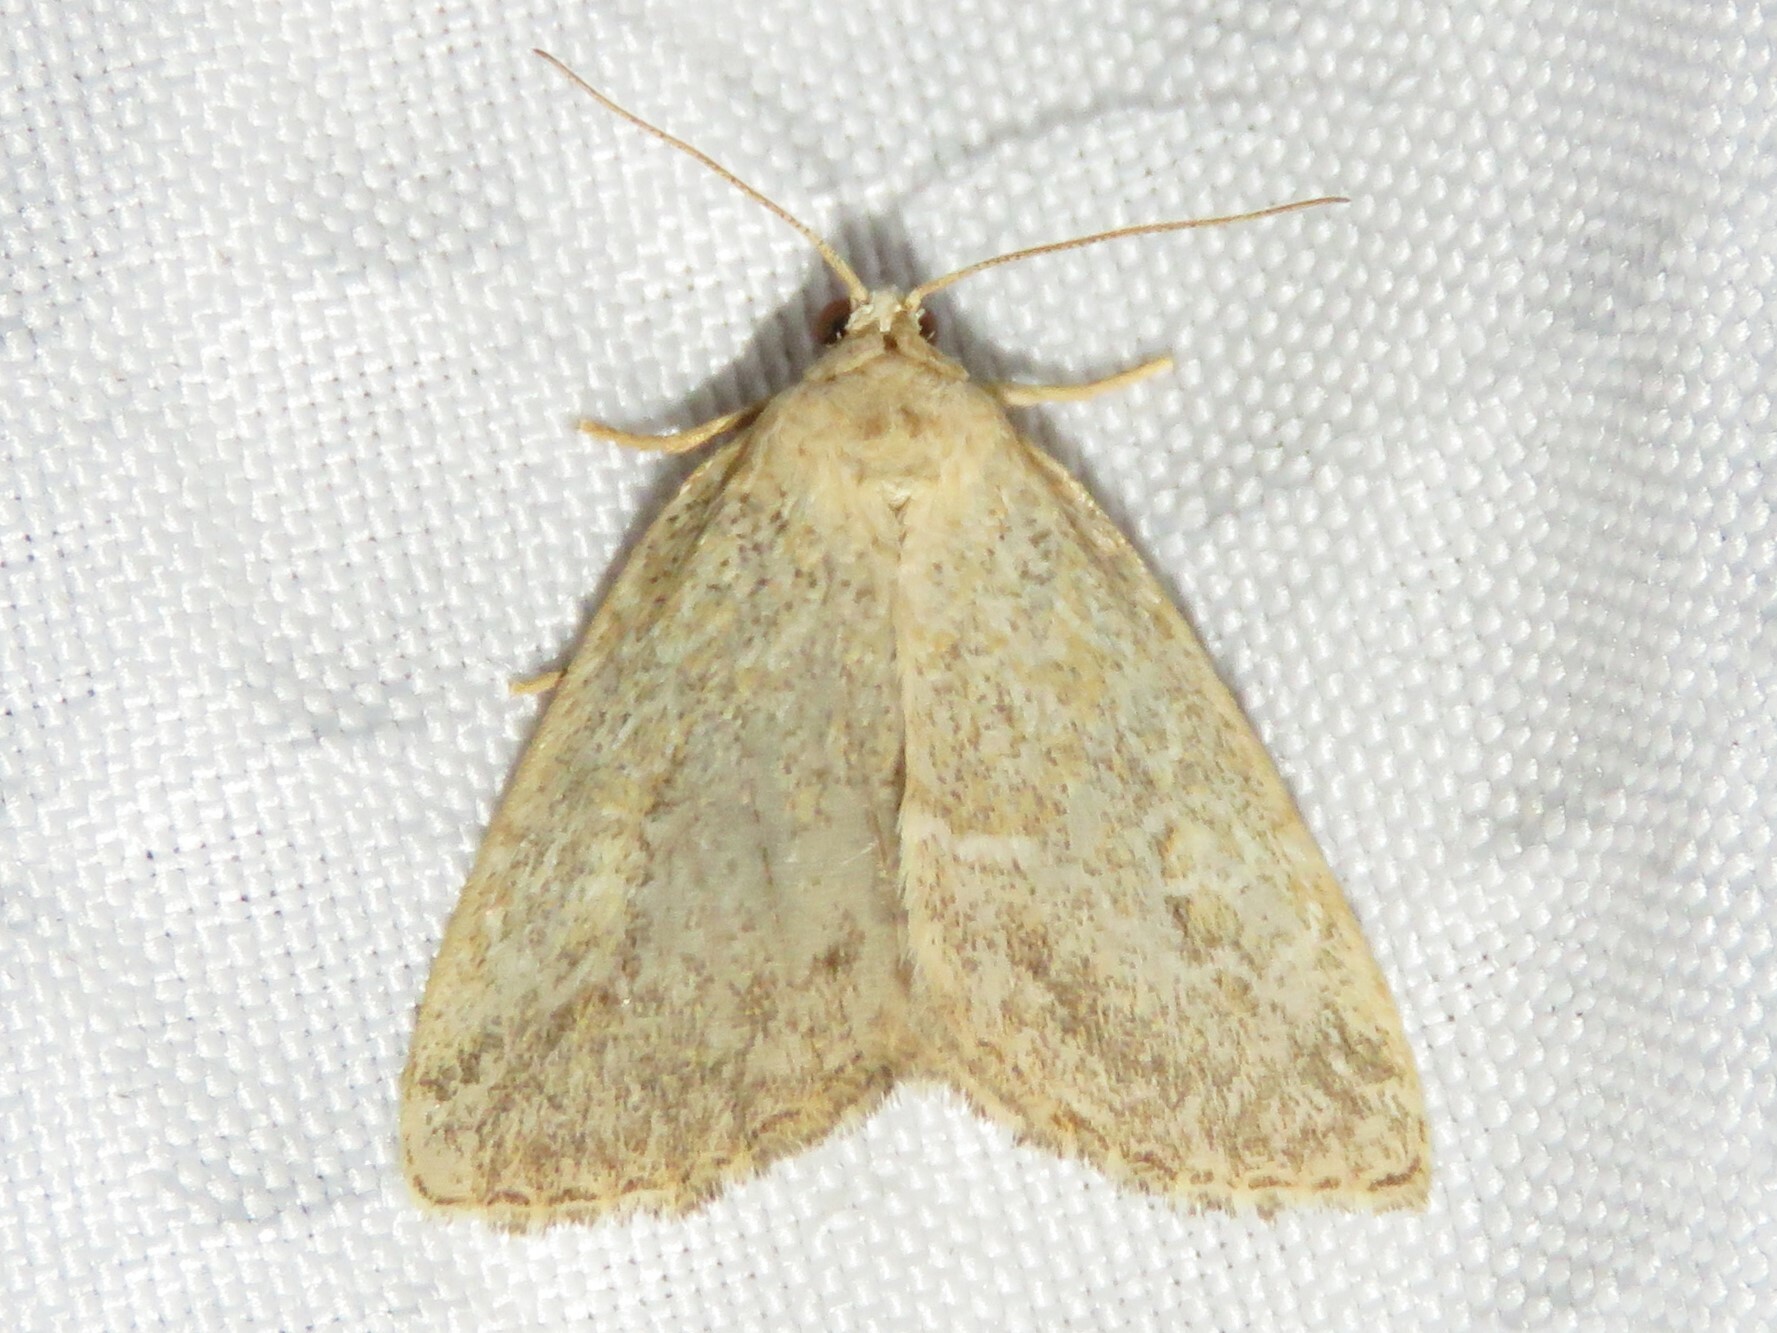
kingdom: Animalia
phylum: Arthropoda
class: Insecta
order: Lepidoptera
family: Noctuidae
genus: Protodeltote
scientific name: Protodeltote albidula
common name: Pale glyph
